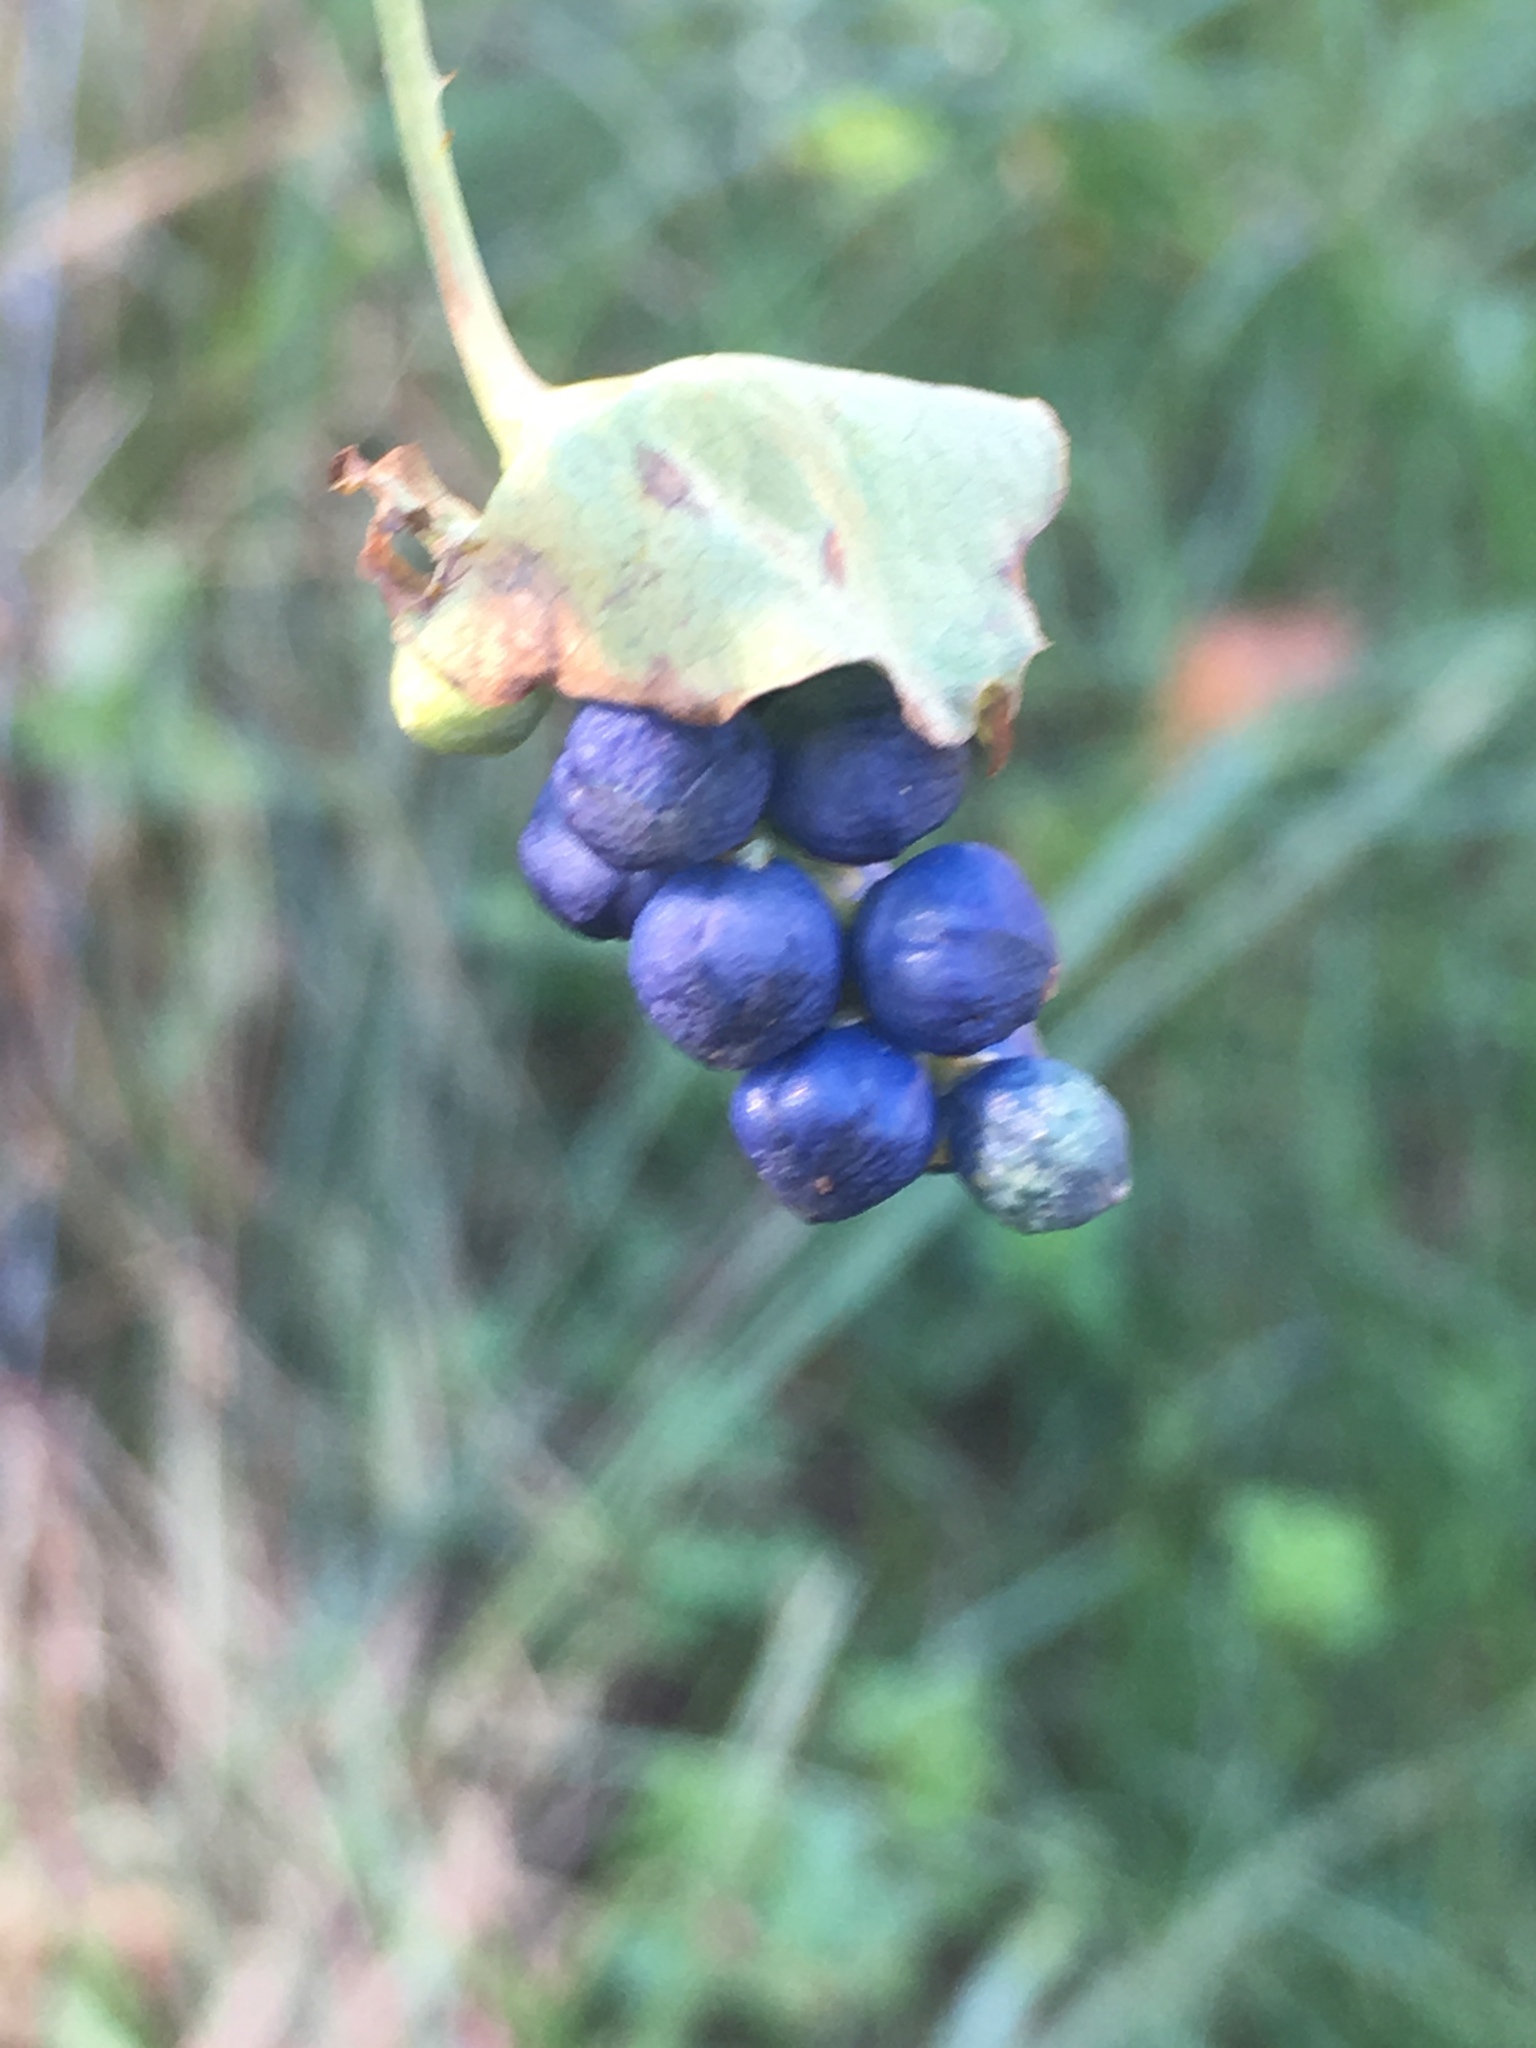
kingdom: Plantae
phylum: Tracheophyta
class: Magnoliopsida
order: Caryophyllales
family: Polygonaceae
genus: Persicaria
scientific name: Persicaria perfoliata
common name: Asiatic tearthumb
